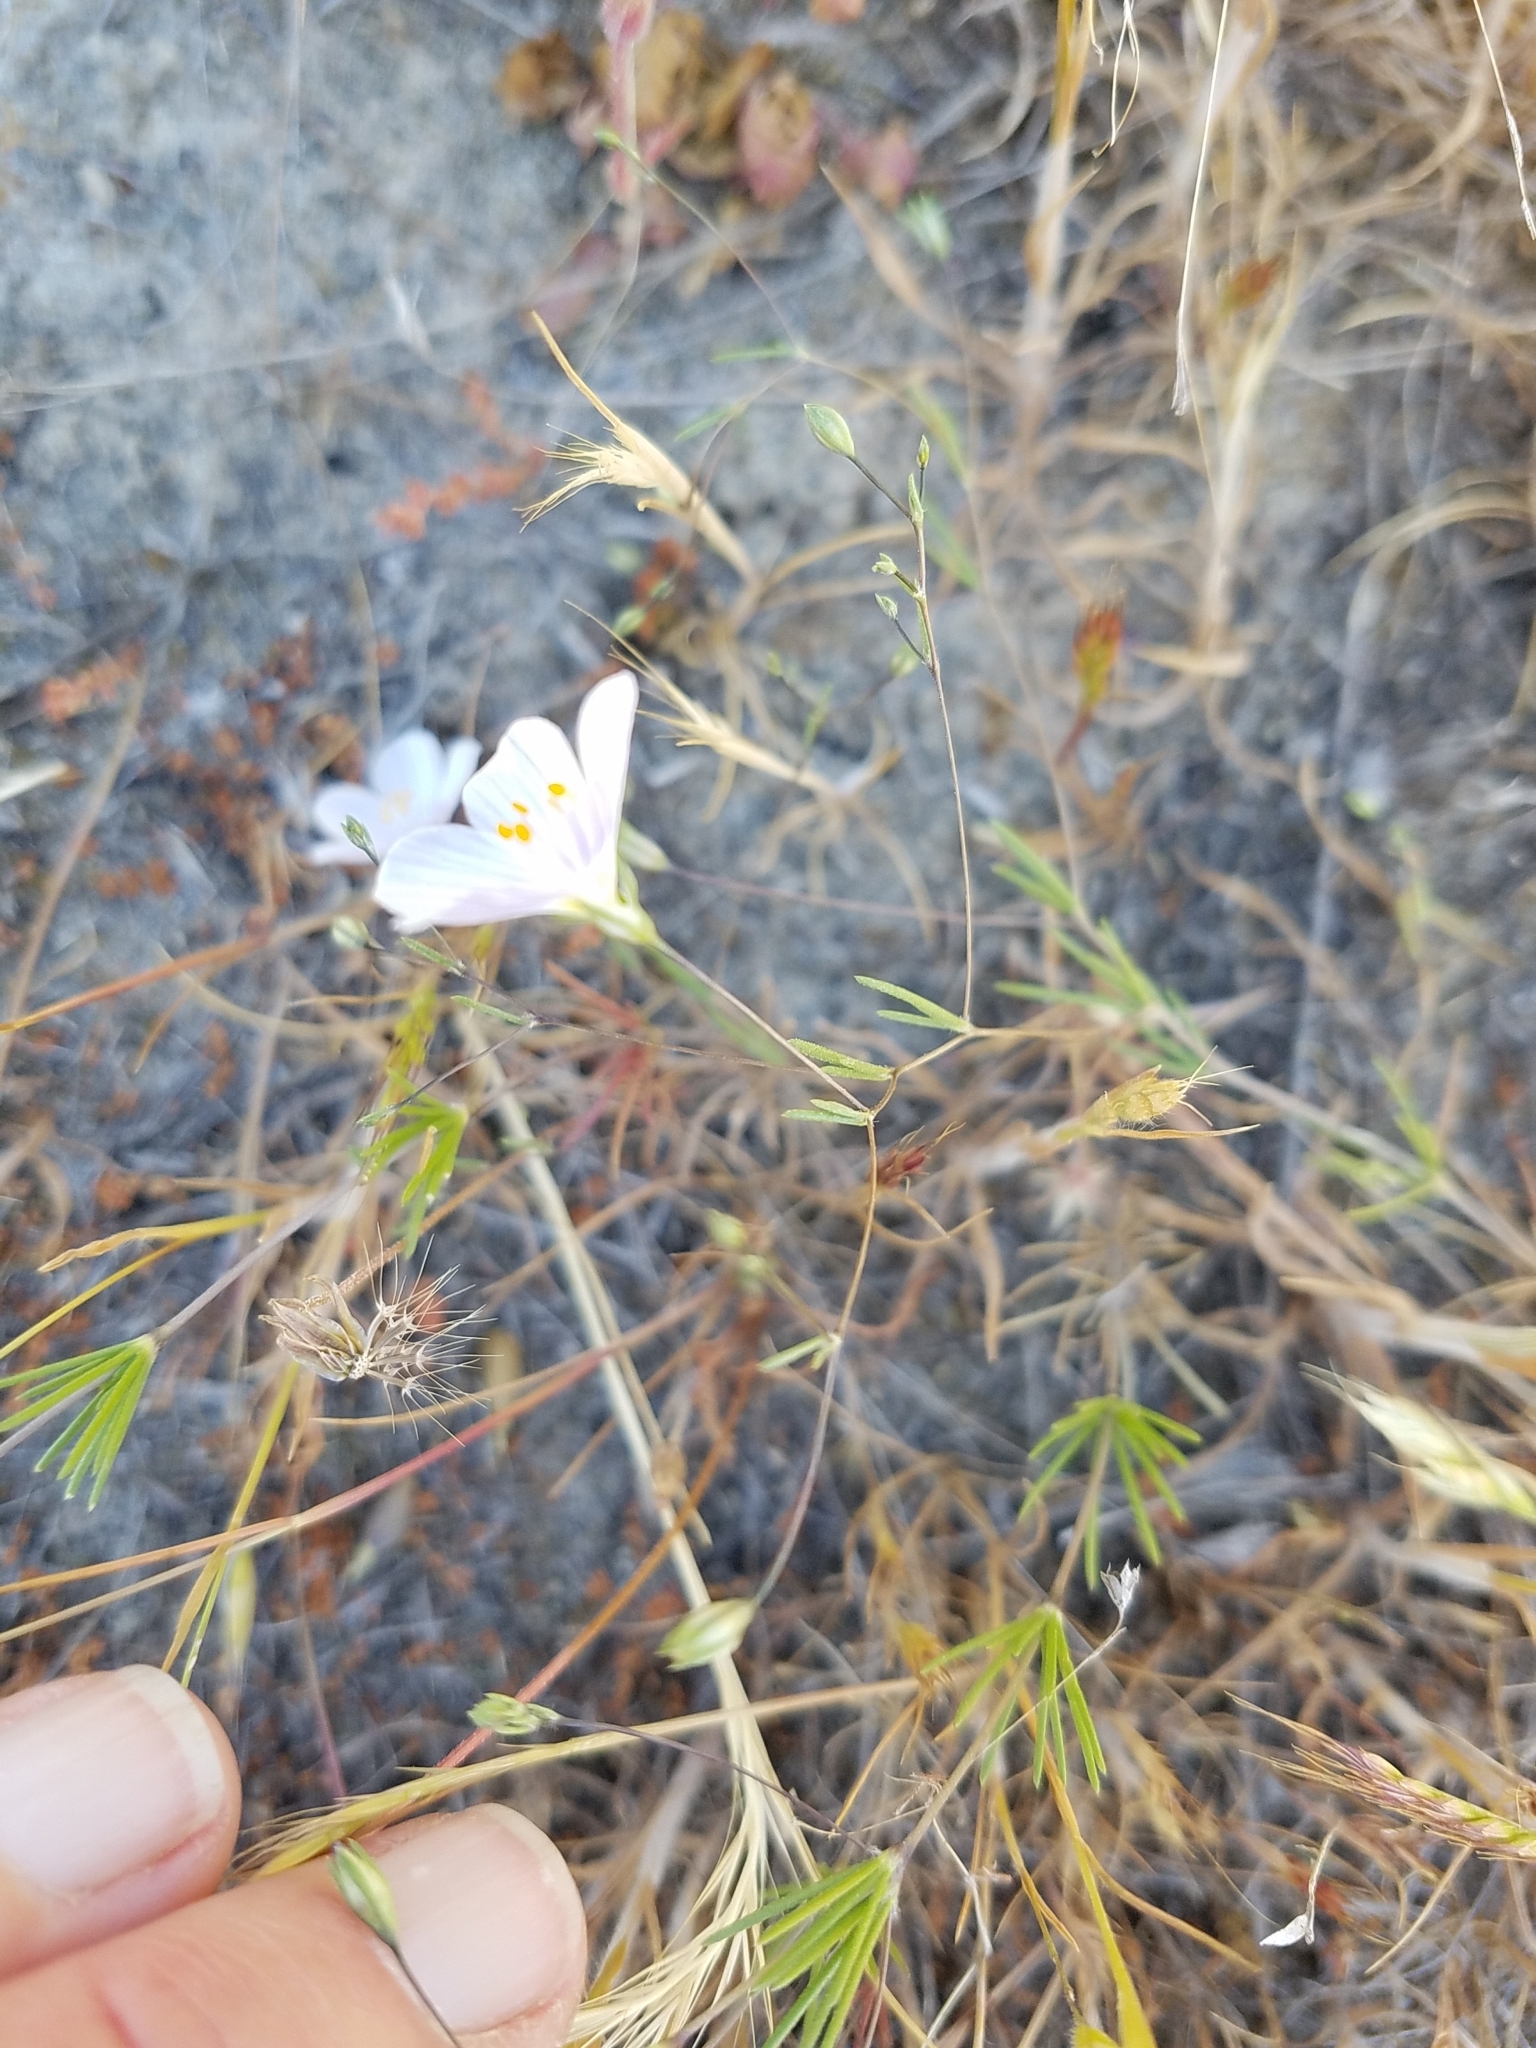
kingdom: Plantae
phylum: Tracheophyta
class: Magnoliopsida
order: Ericales
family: Polemoniaceae
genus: Leptosiphon
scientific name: Leptosiphon liniflorus
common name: Narrowflower flaxflower
